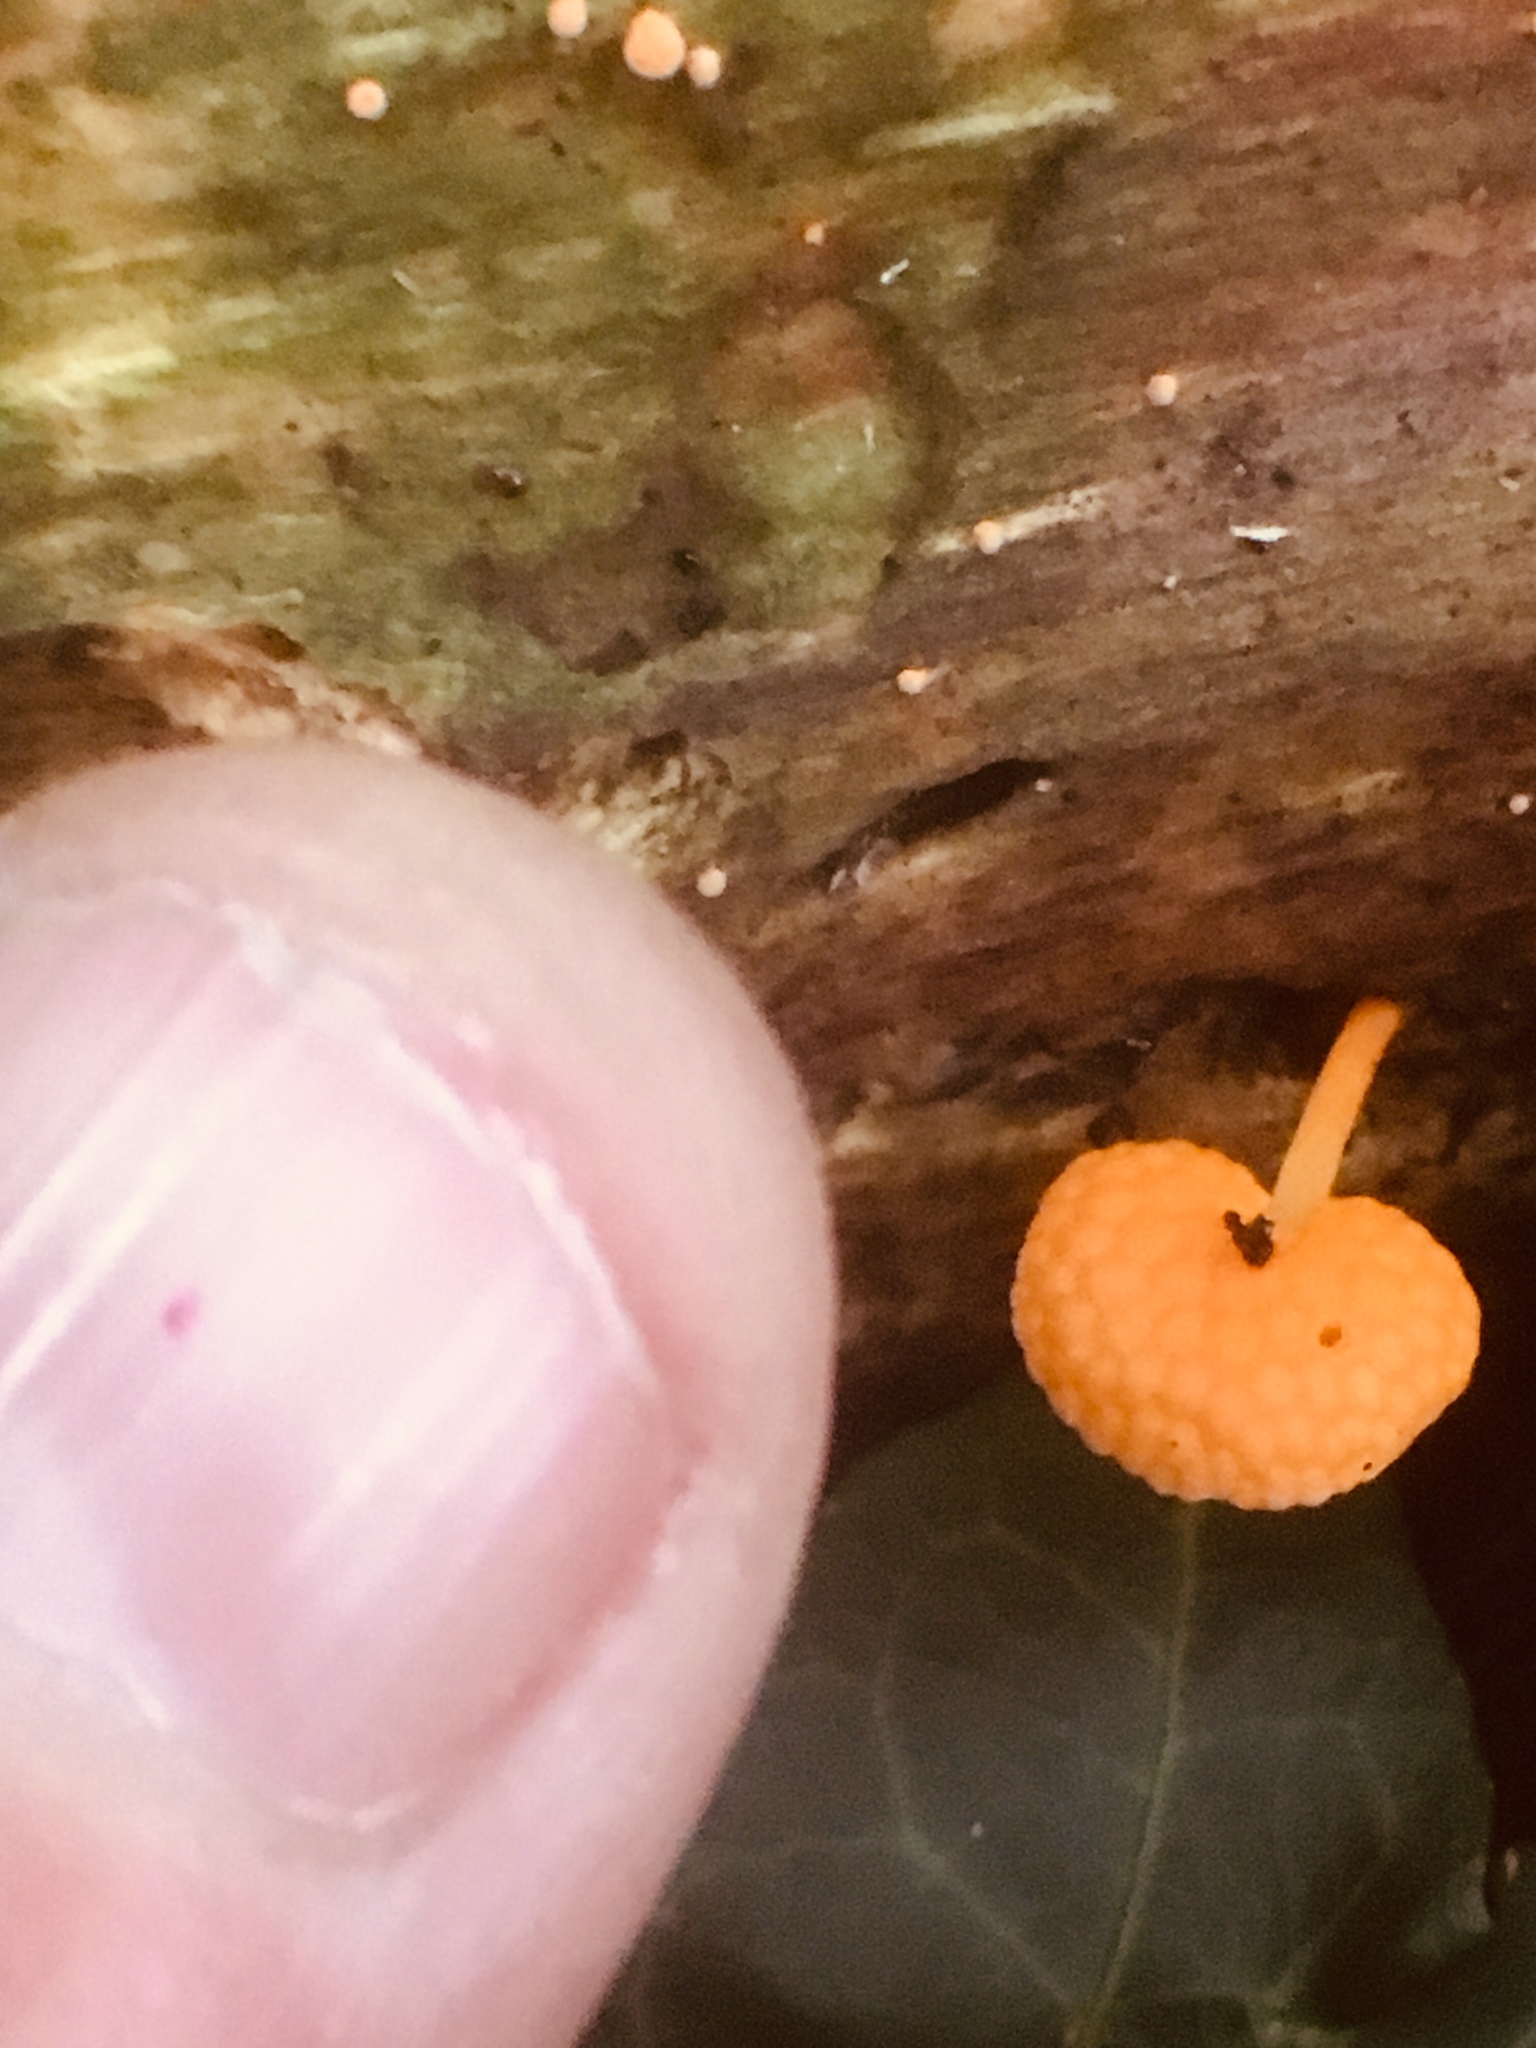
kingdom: Fungi
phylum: Basidiomycota
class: Agaricomycetes
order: Agaricales
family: Mycenaceae
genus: Favolaschia
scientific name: Favolaschia claudopus
